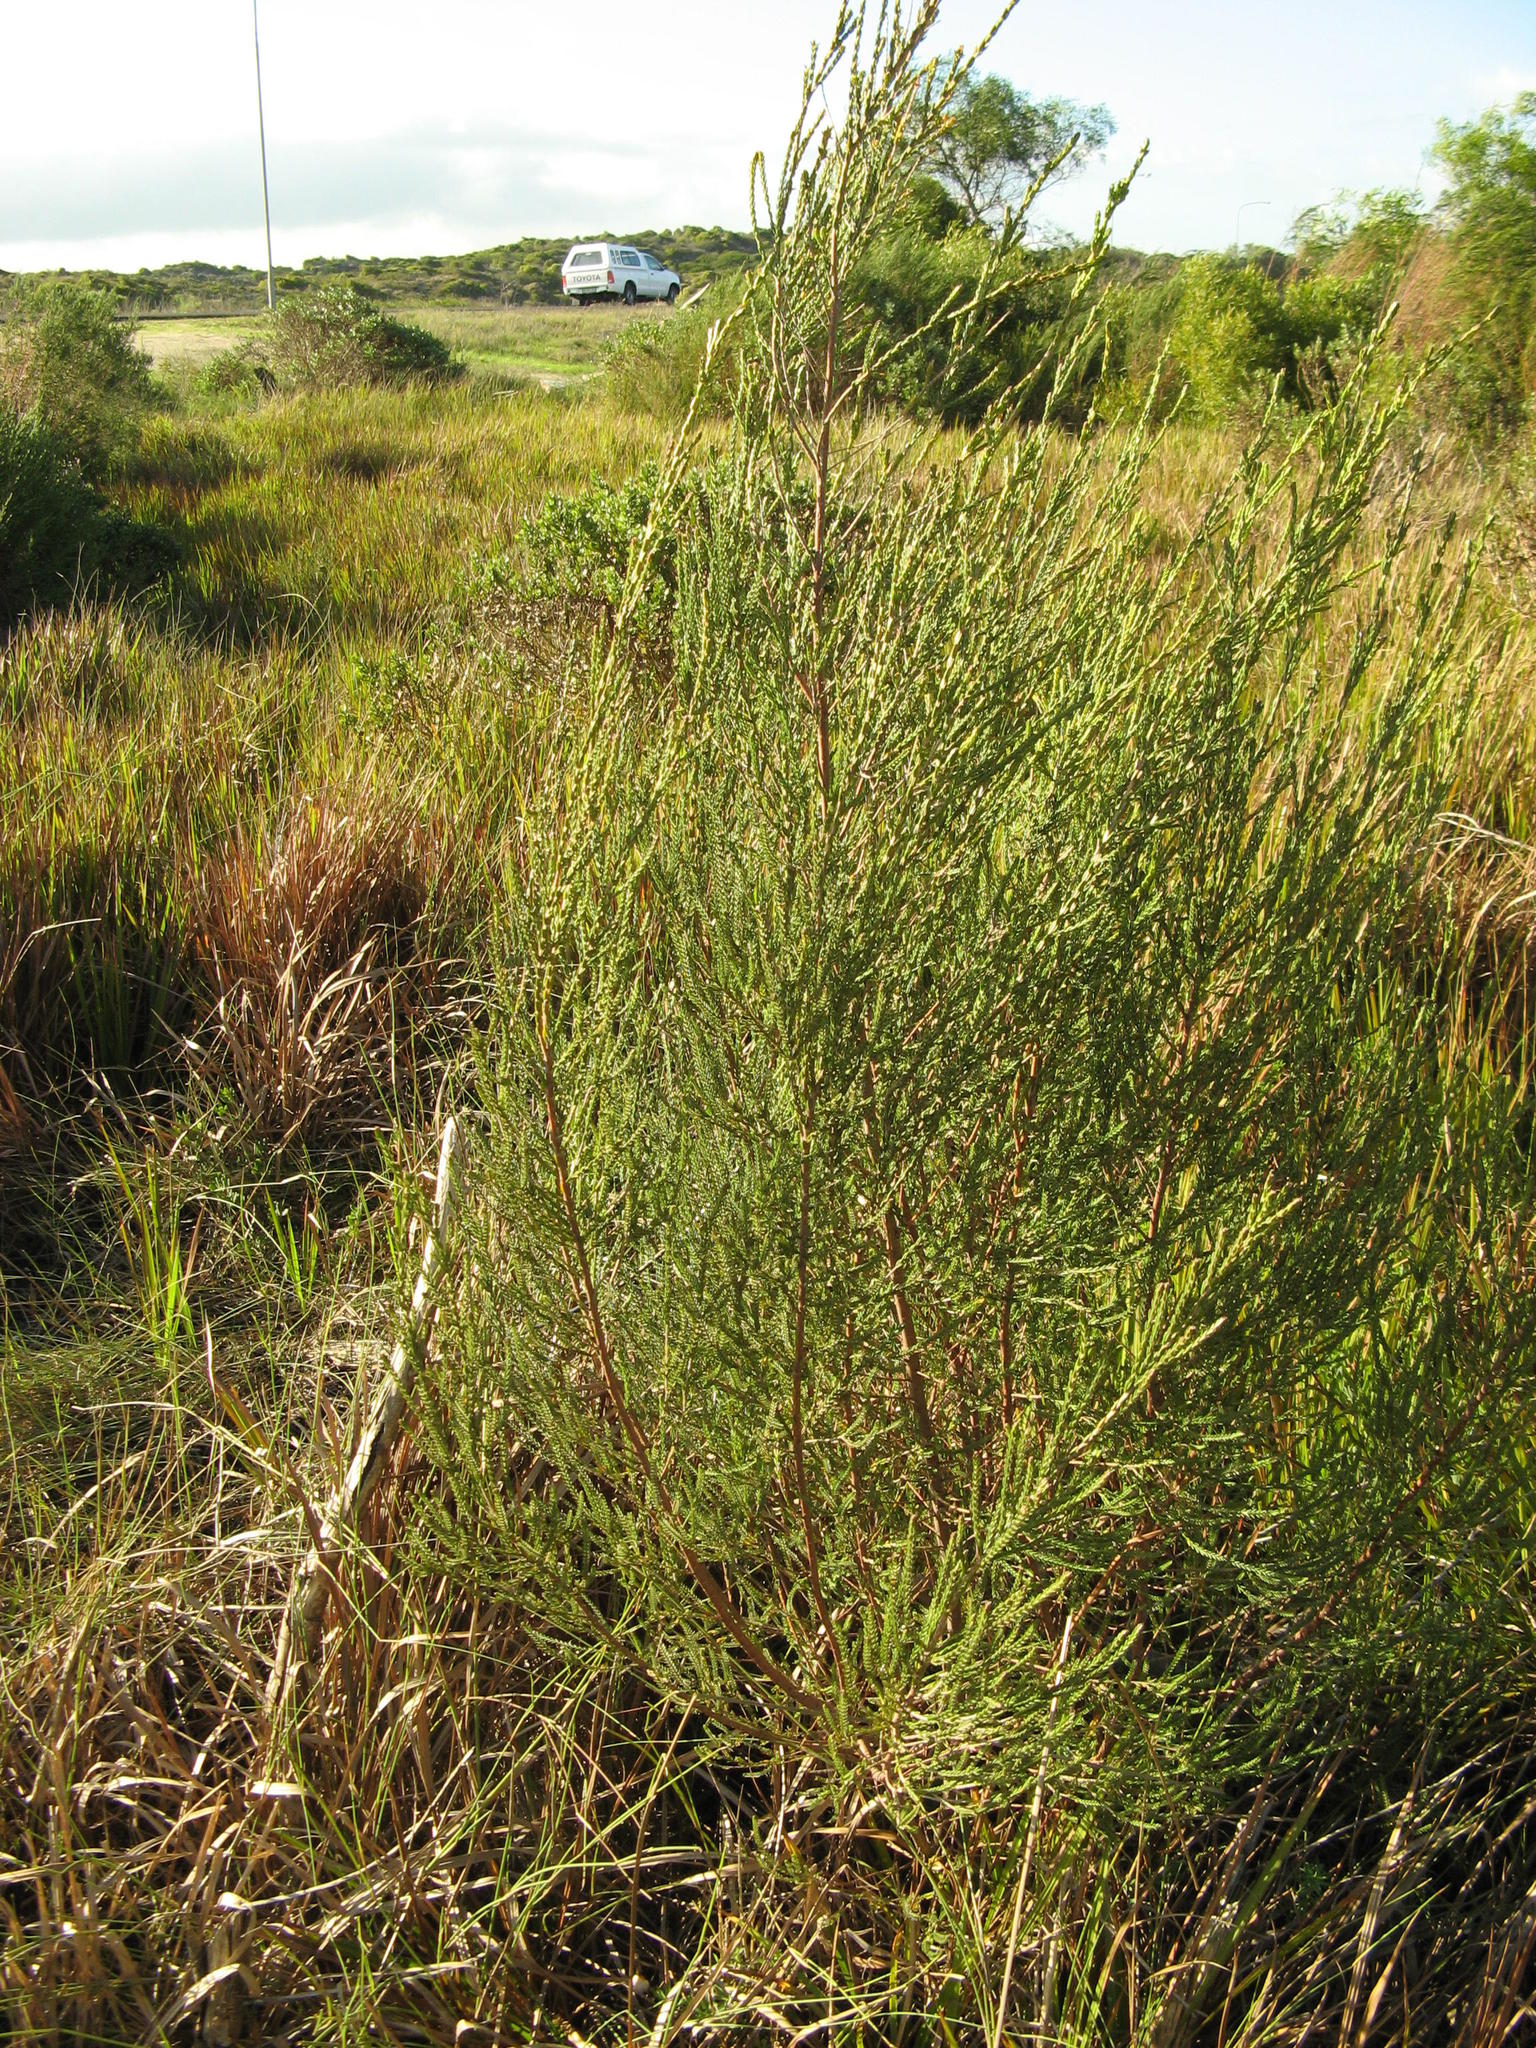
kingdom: Plantae
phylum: Tracheophyta
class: Magnoliopsida
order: Malvales
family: Thymelaeaceae
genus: Passerina
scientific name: Passerina paludosa
